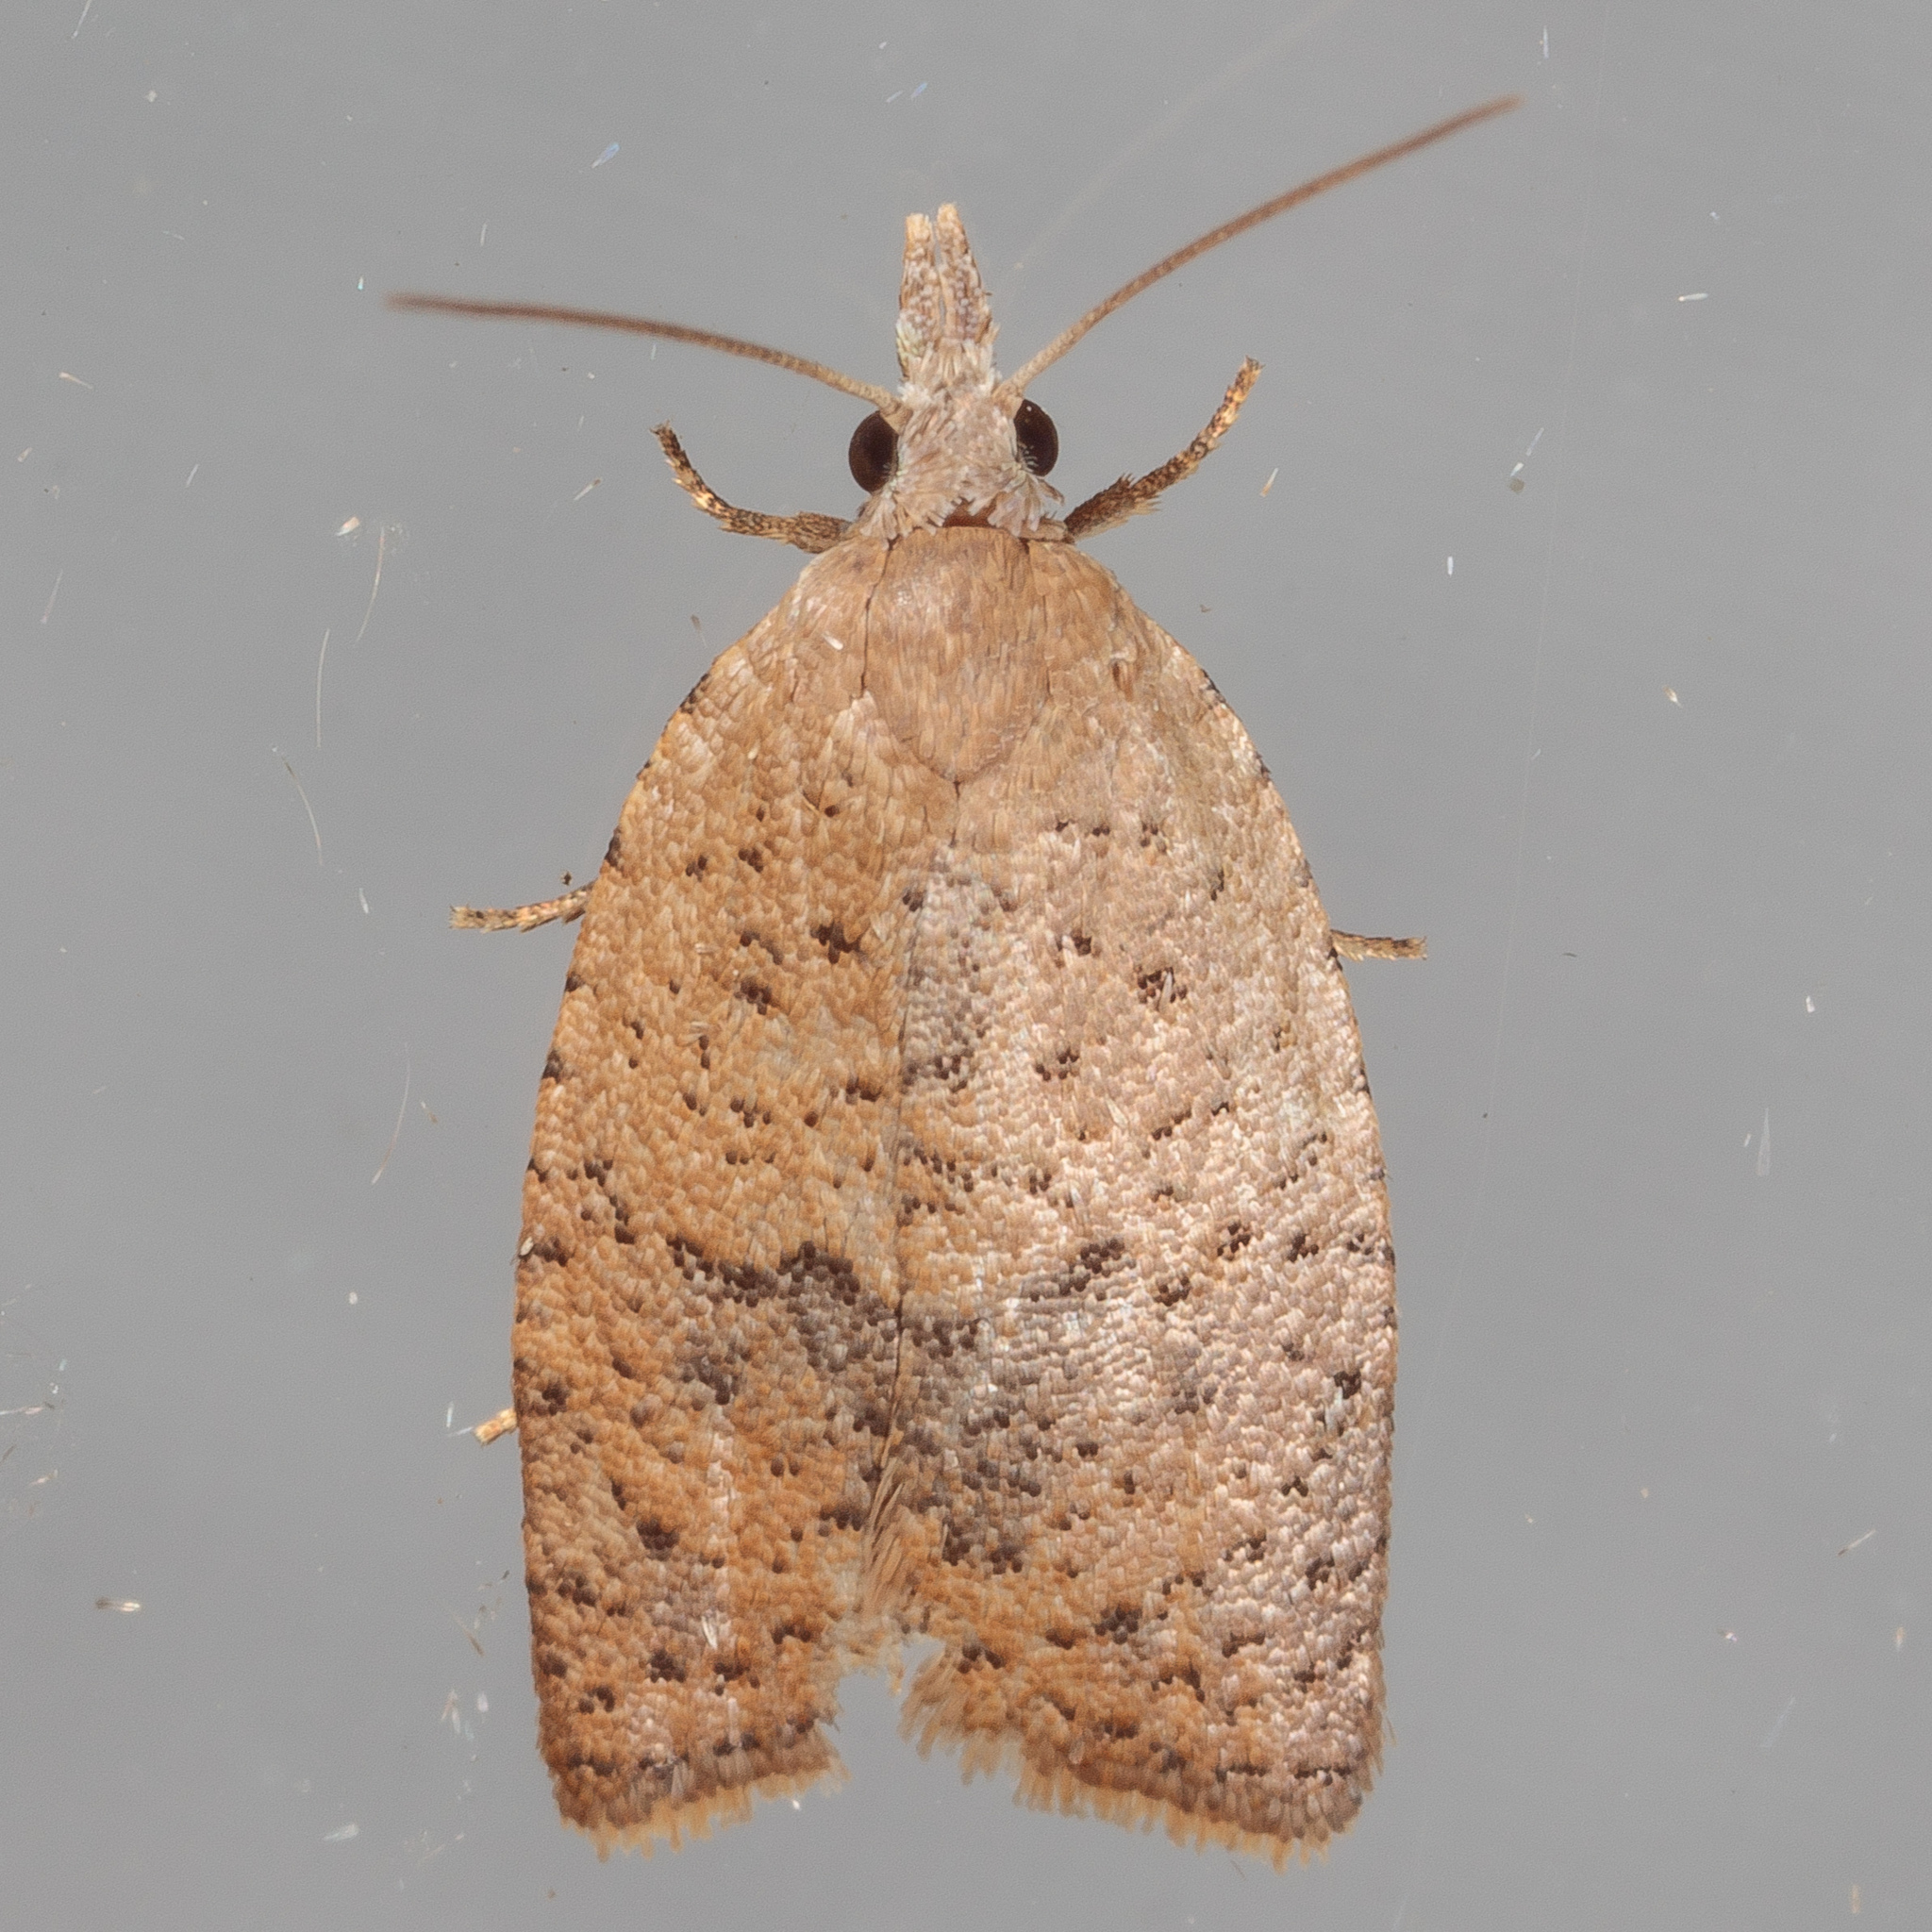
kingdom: Animalia
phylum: Arthropoda
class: Insecta
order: Lepidoptera
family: Tortricidae
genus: Sparganothoides
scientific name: Sparganothoides lentiginosana
